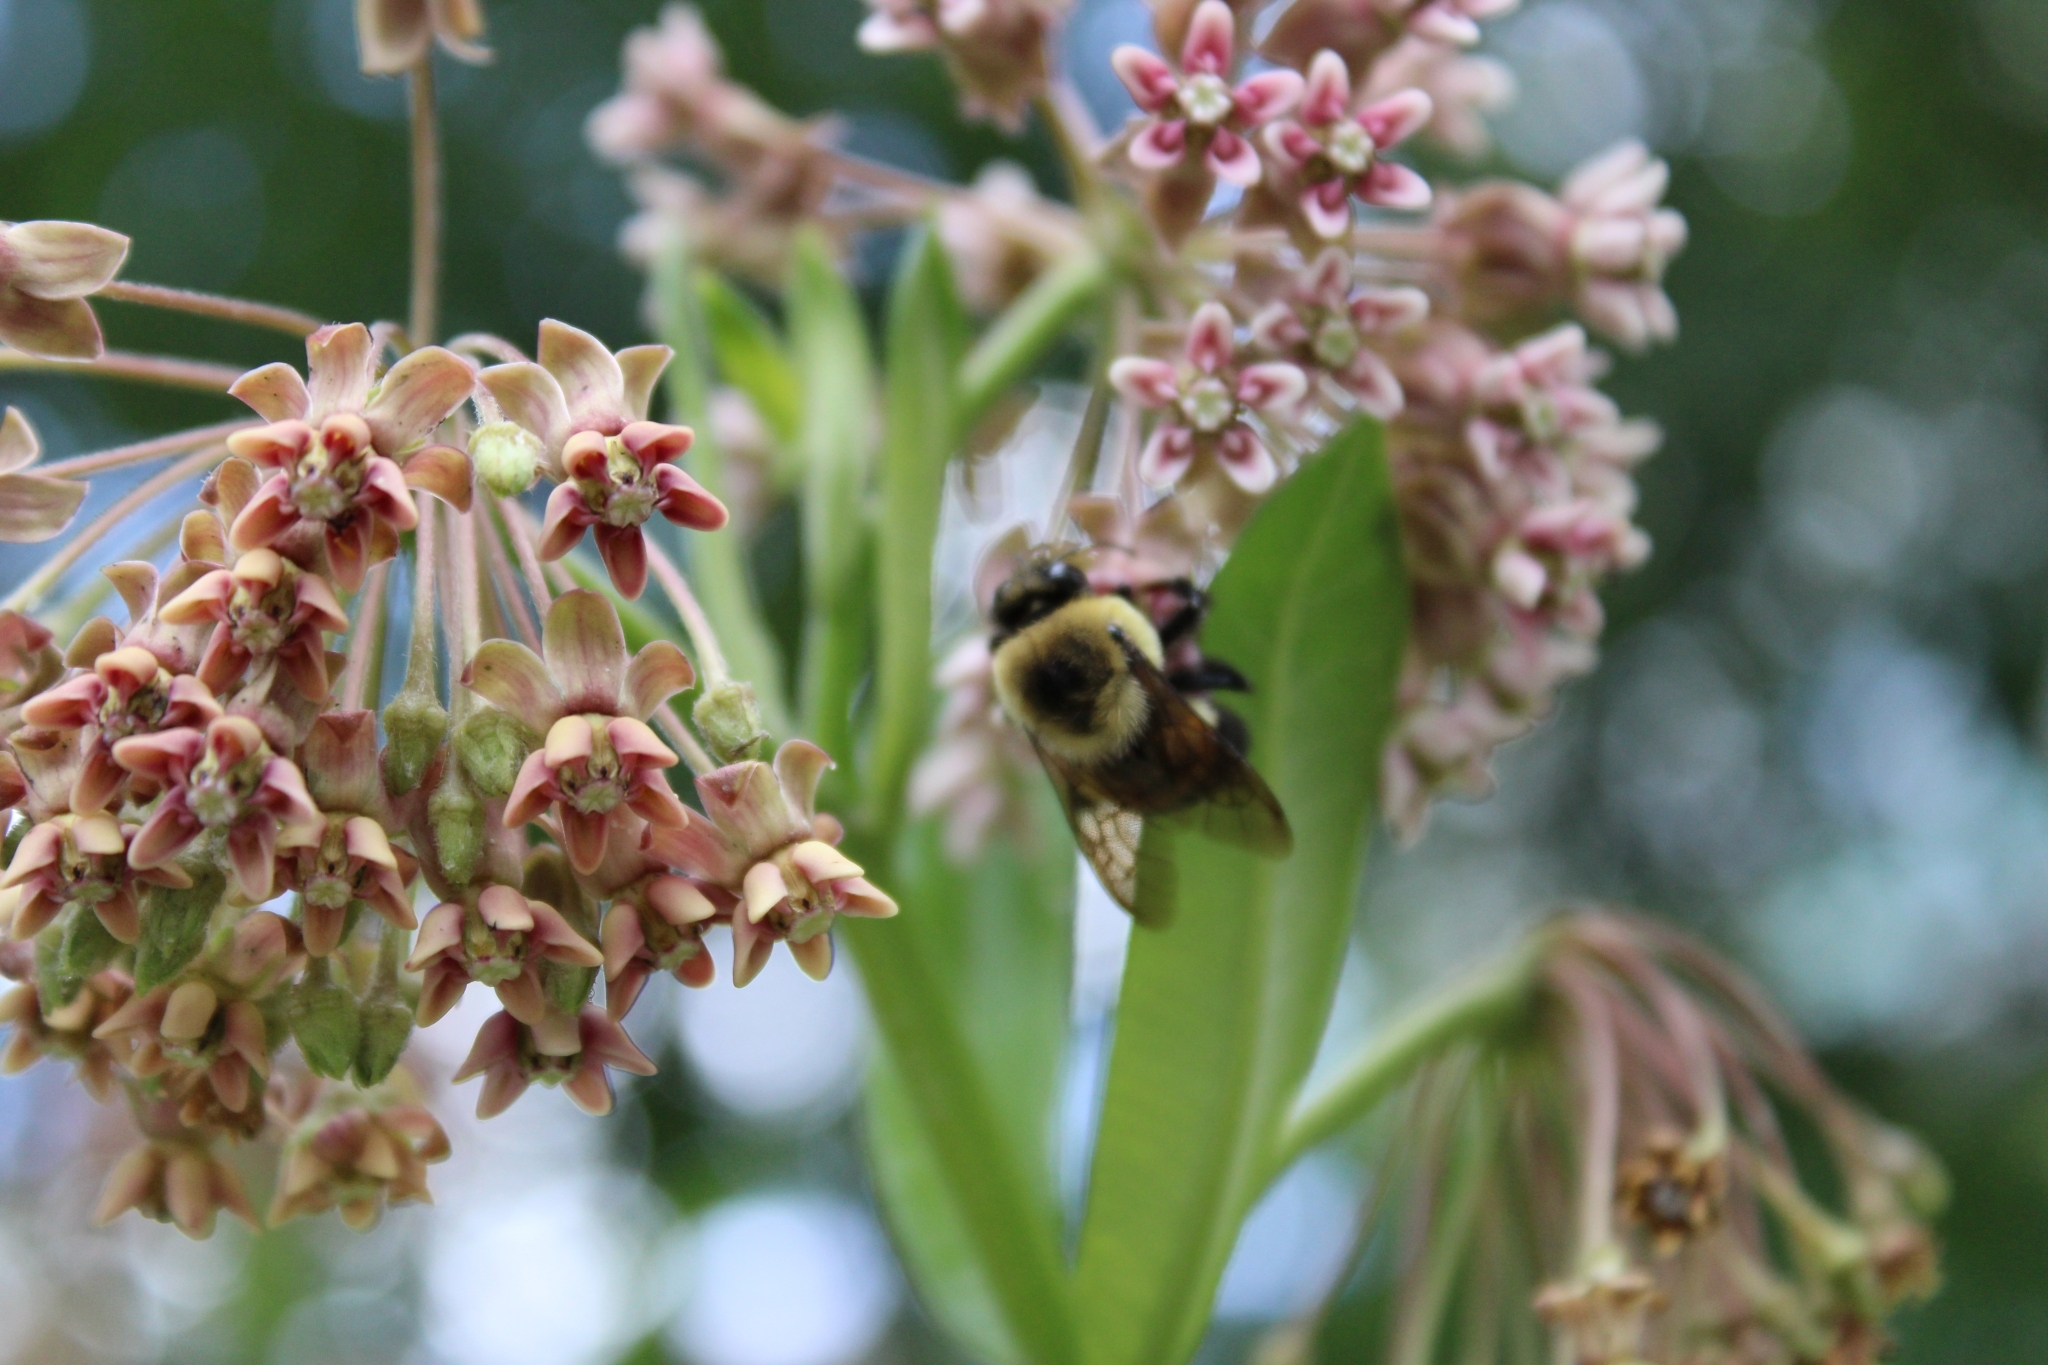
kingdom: Animalia
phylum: Arthropoda
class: Insecta
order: Hymenoptera
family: Apidae
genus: Bombus
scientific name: Bombus griseocollis
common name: Brown-belted bumble bee
